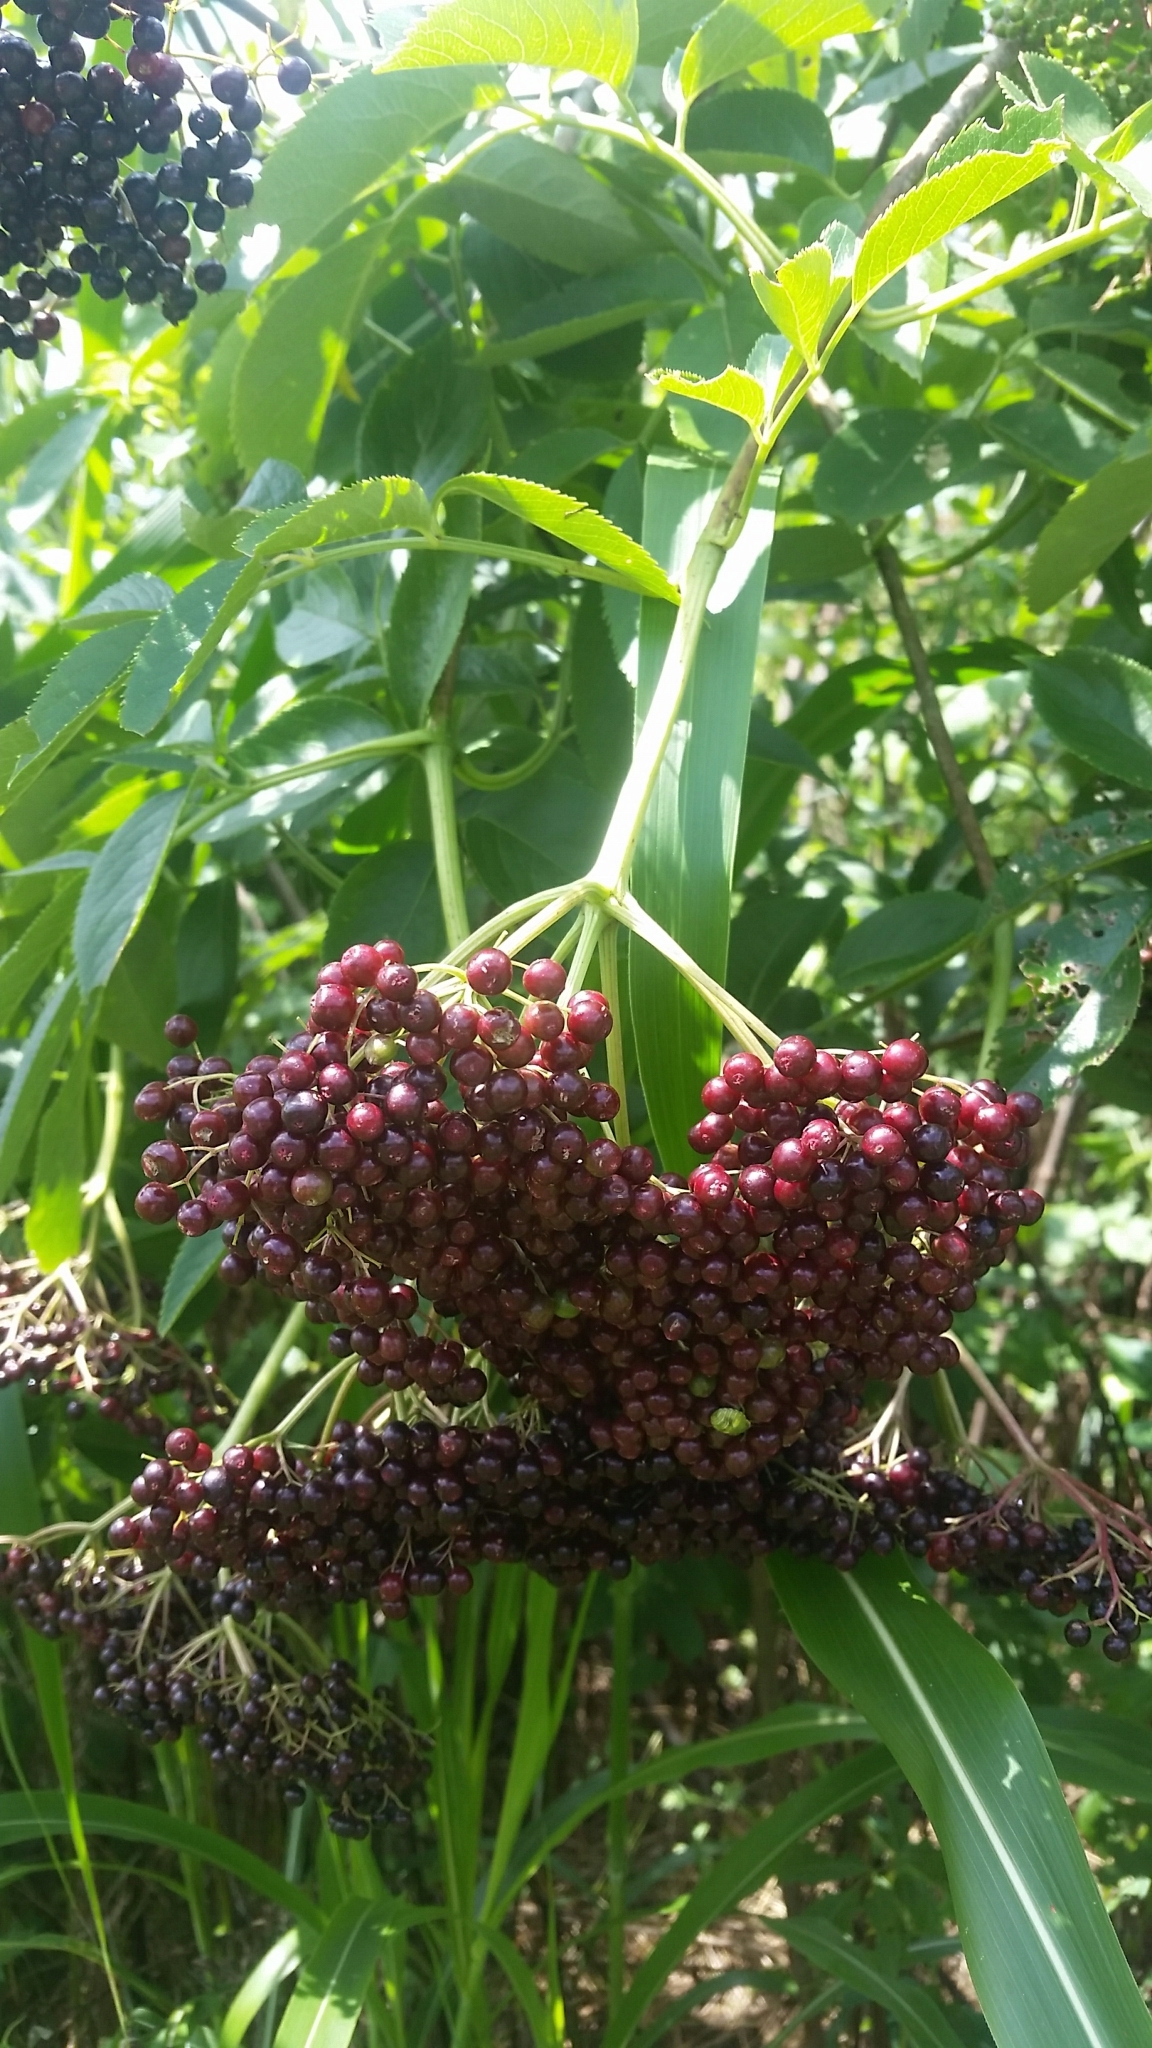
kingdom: Plantae
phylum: Tracheophyta
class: Magnoliopsida
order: Dipsacales
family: Viburnaceae
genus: Sambucus
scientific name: Sambucus canadensis
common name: American elder
